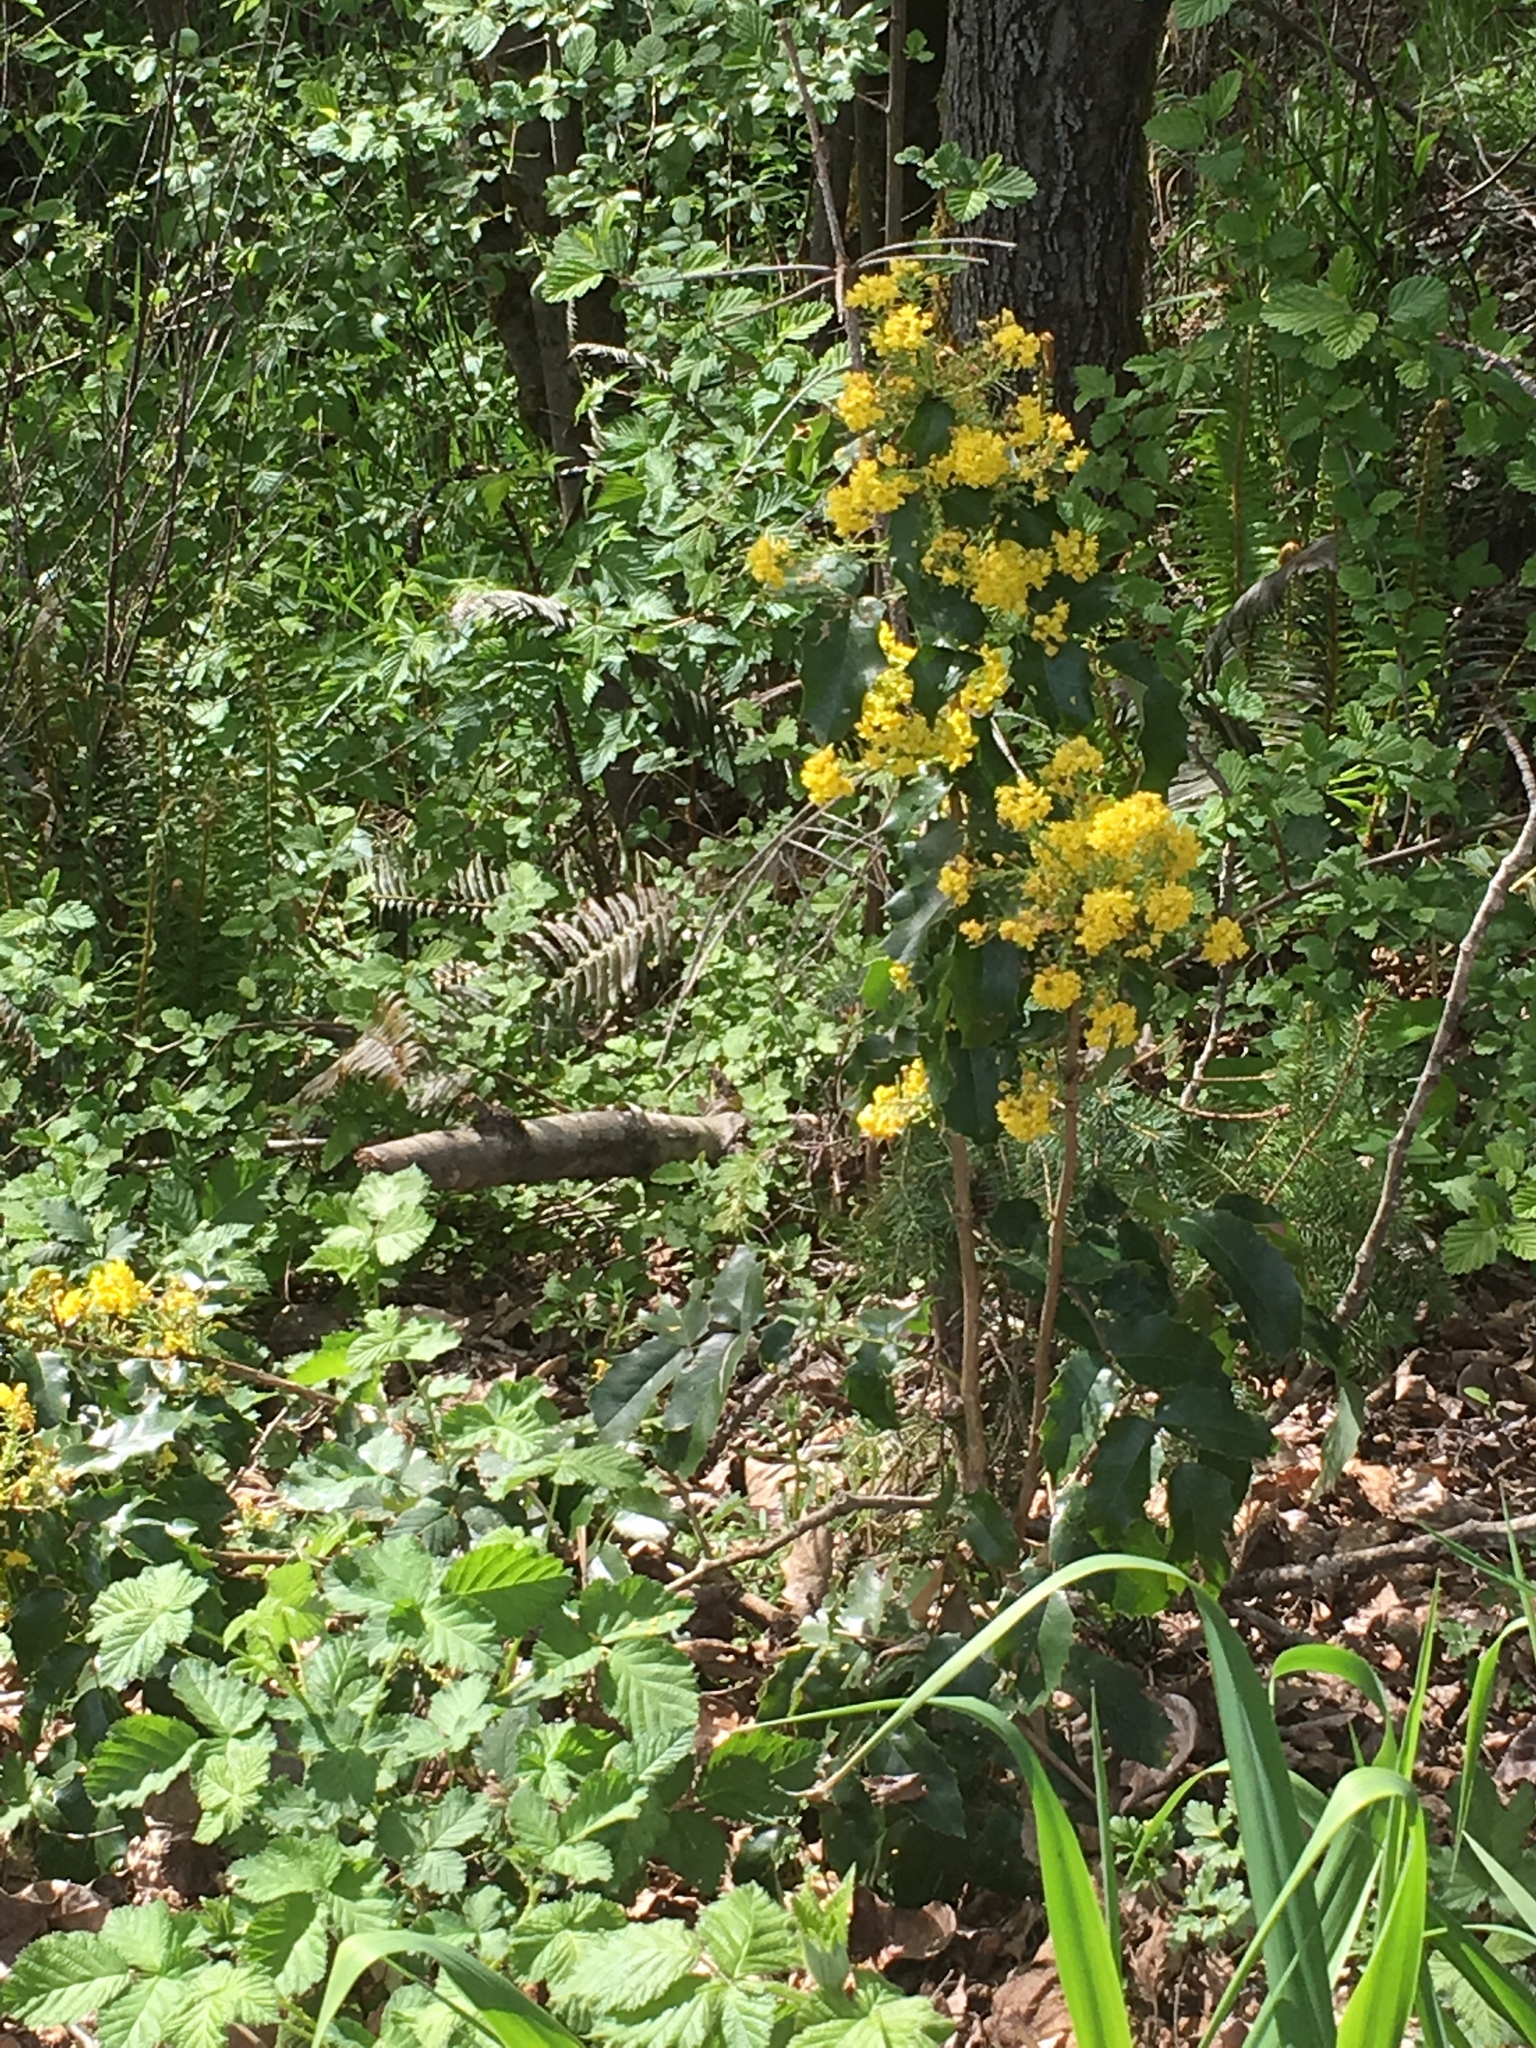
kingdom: Plantae
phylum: Tracheophyta
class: Magnoliopsida
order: Ranunculales
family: Berberidaceae
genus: Mahonia
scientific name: Mahonia aquifolium
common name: Oregon-grape
